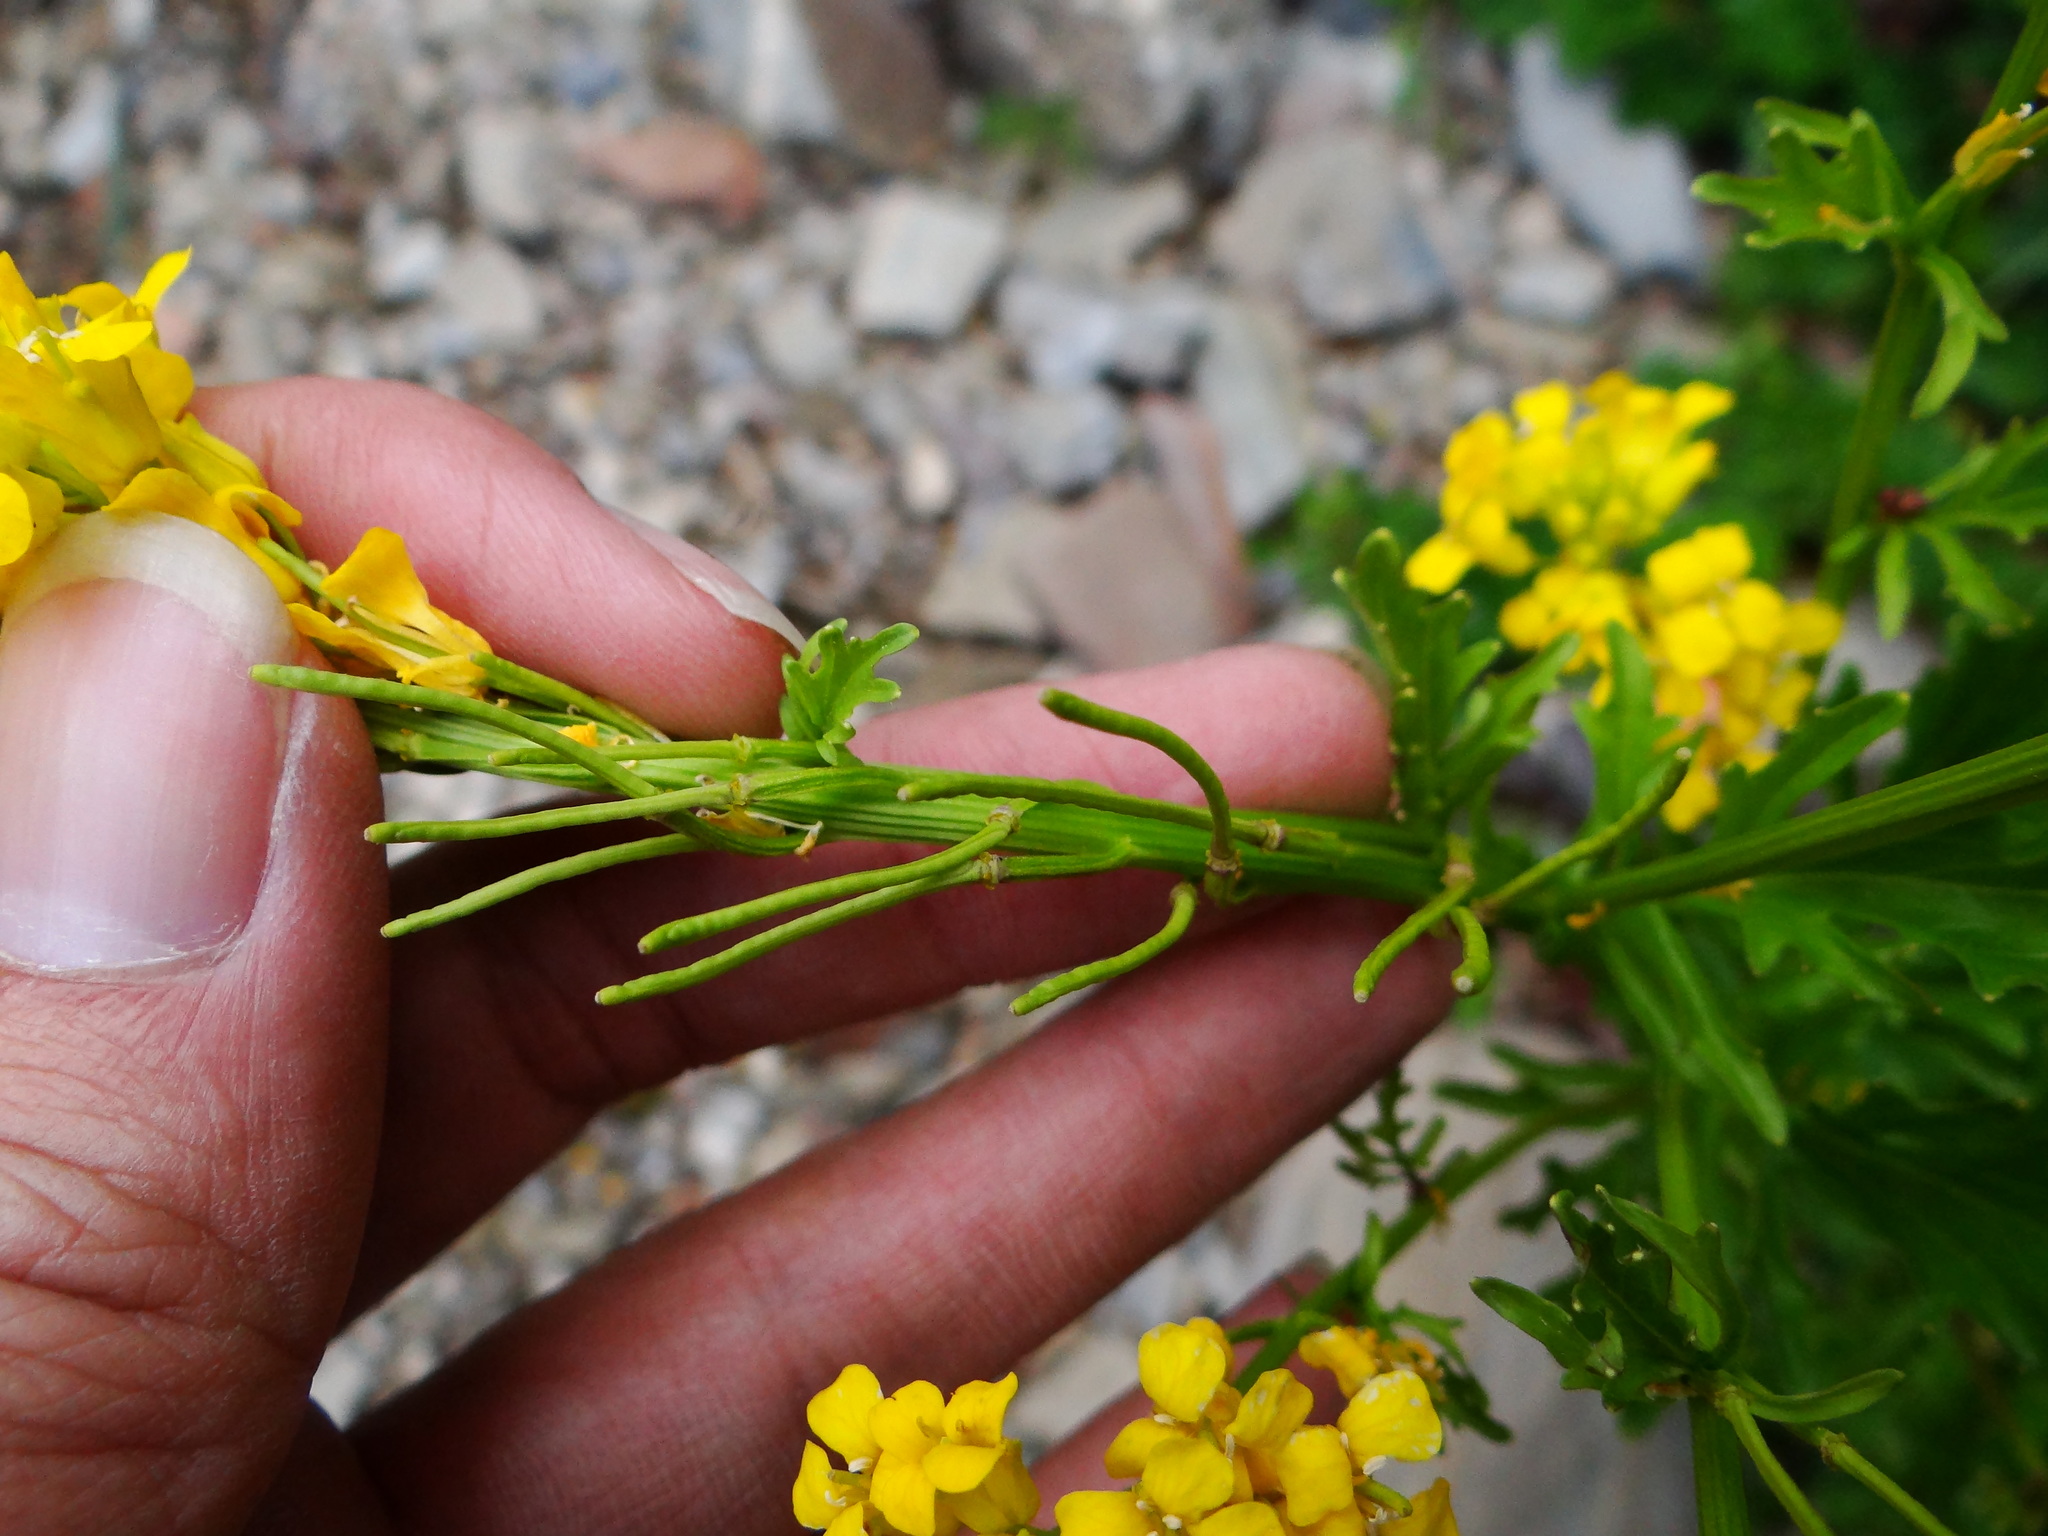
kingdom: Plantae
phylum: Tracheophyta
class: Magnoliopsida
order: Brassicales
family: Brassicaceae
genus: Barbarea
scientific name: Barbarea orthoceras
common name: American wintercress
